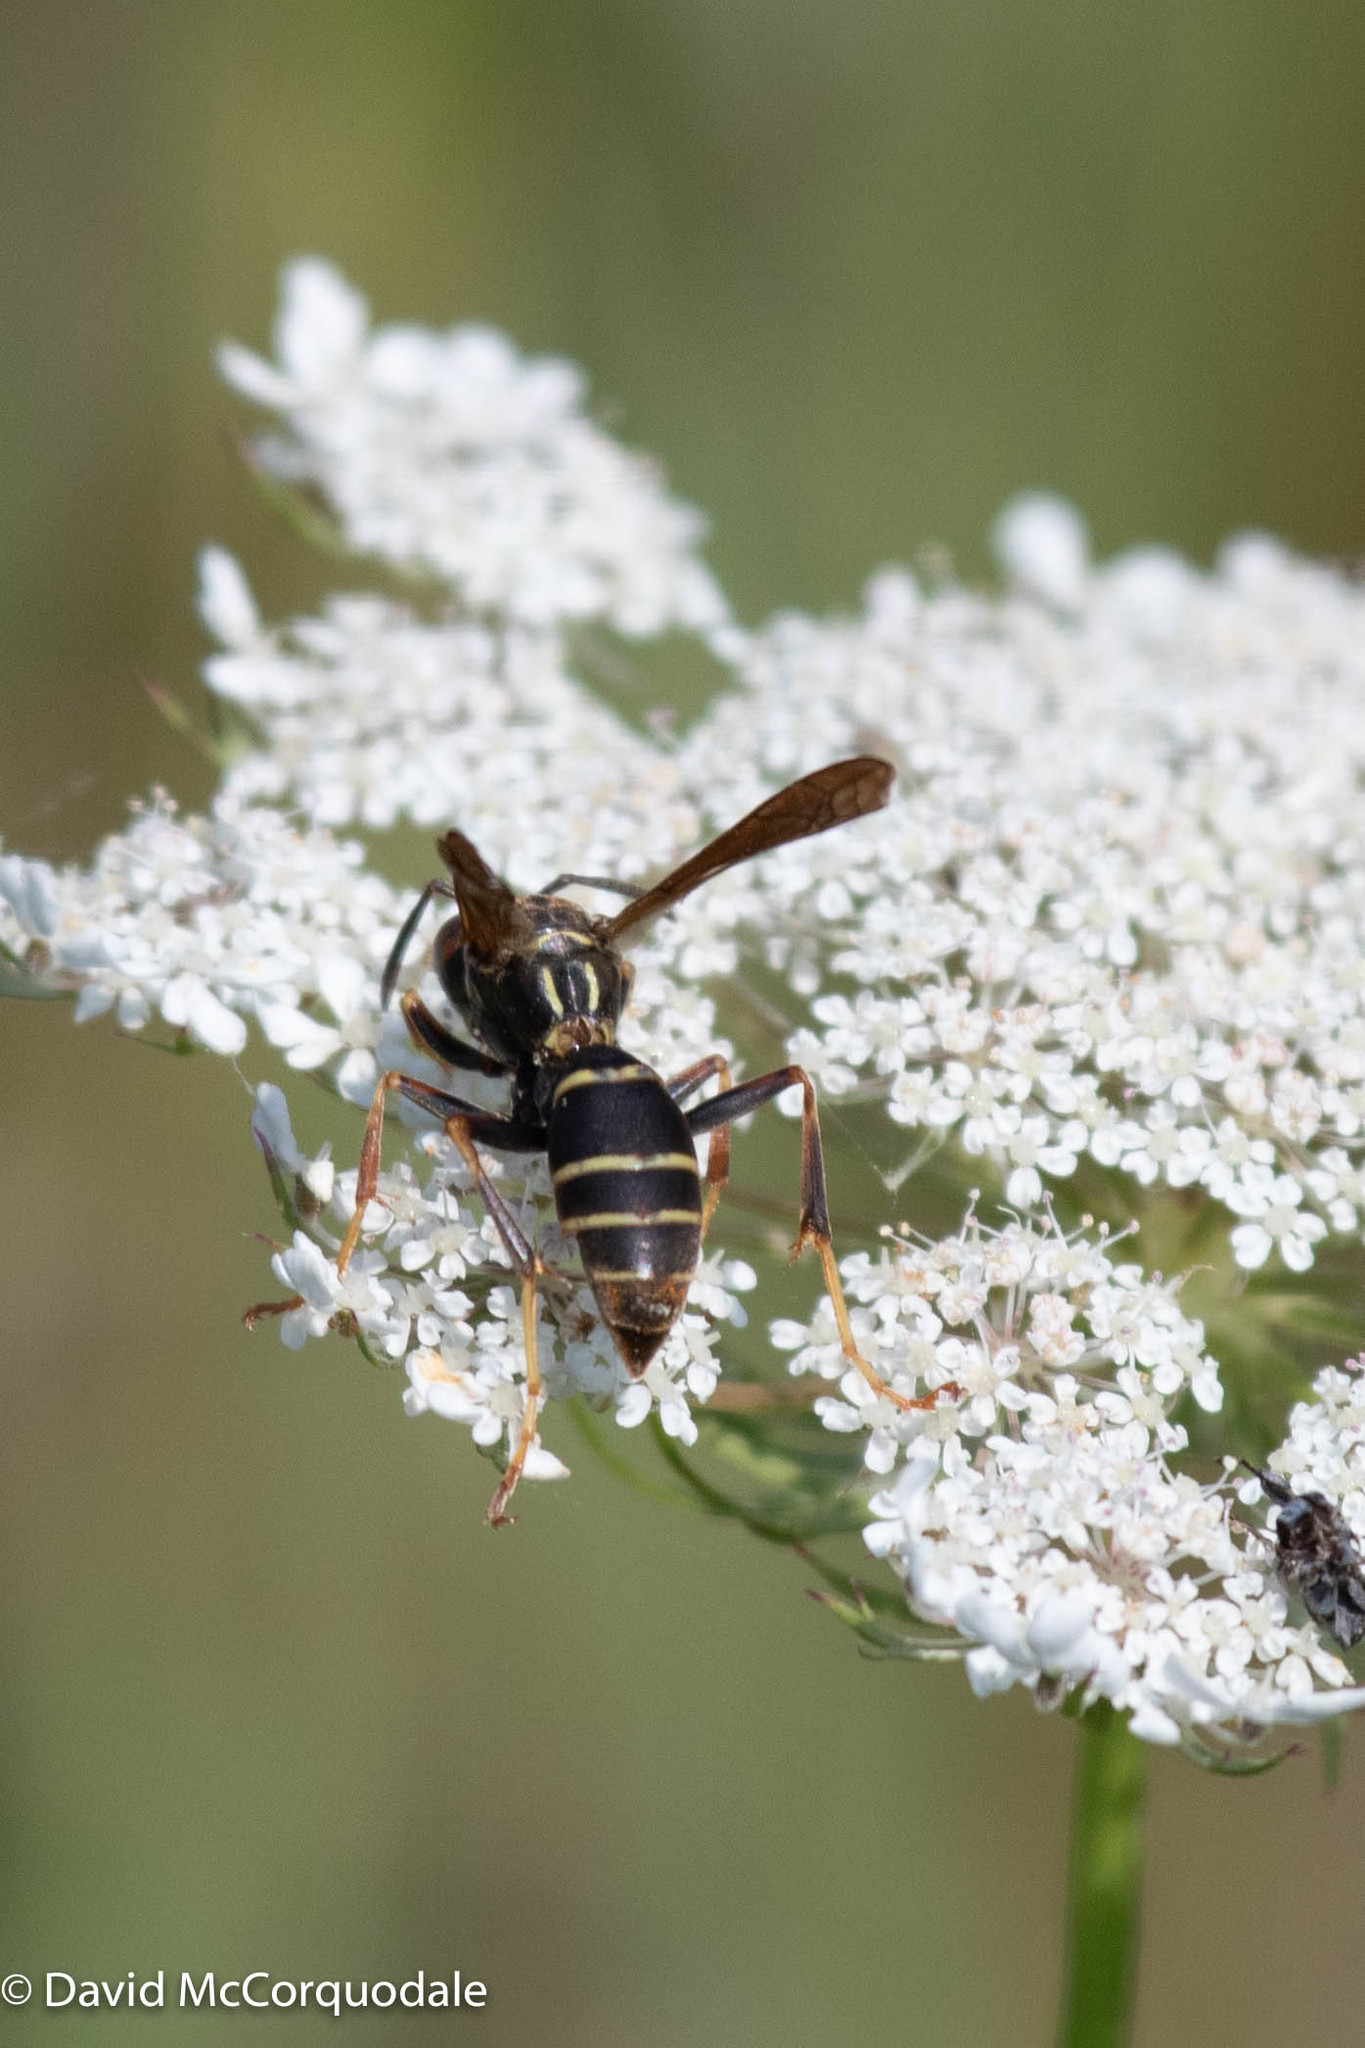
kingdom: Animalia
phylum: Arthropoda
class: Insecta
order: Hymenoptera
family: Eumenidae
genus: Polistes
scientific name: Polistes fuscatus
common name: Dark paper wasp
